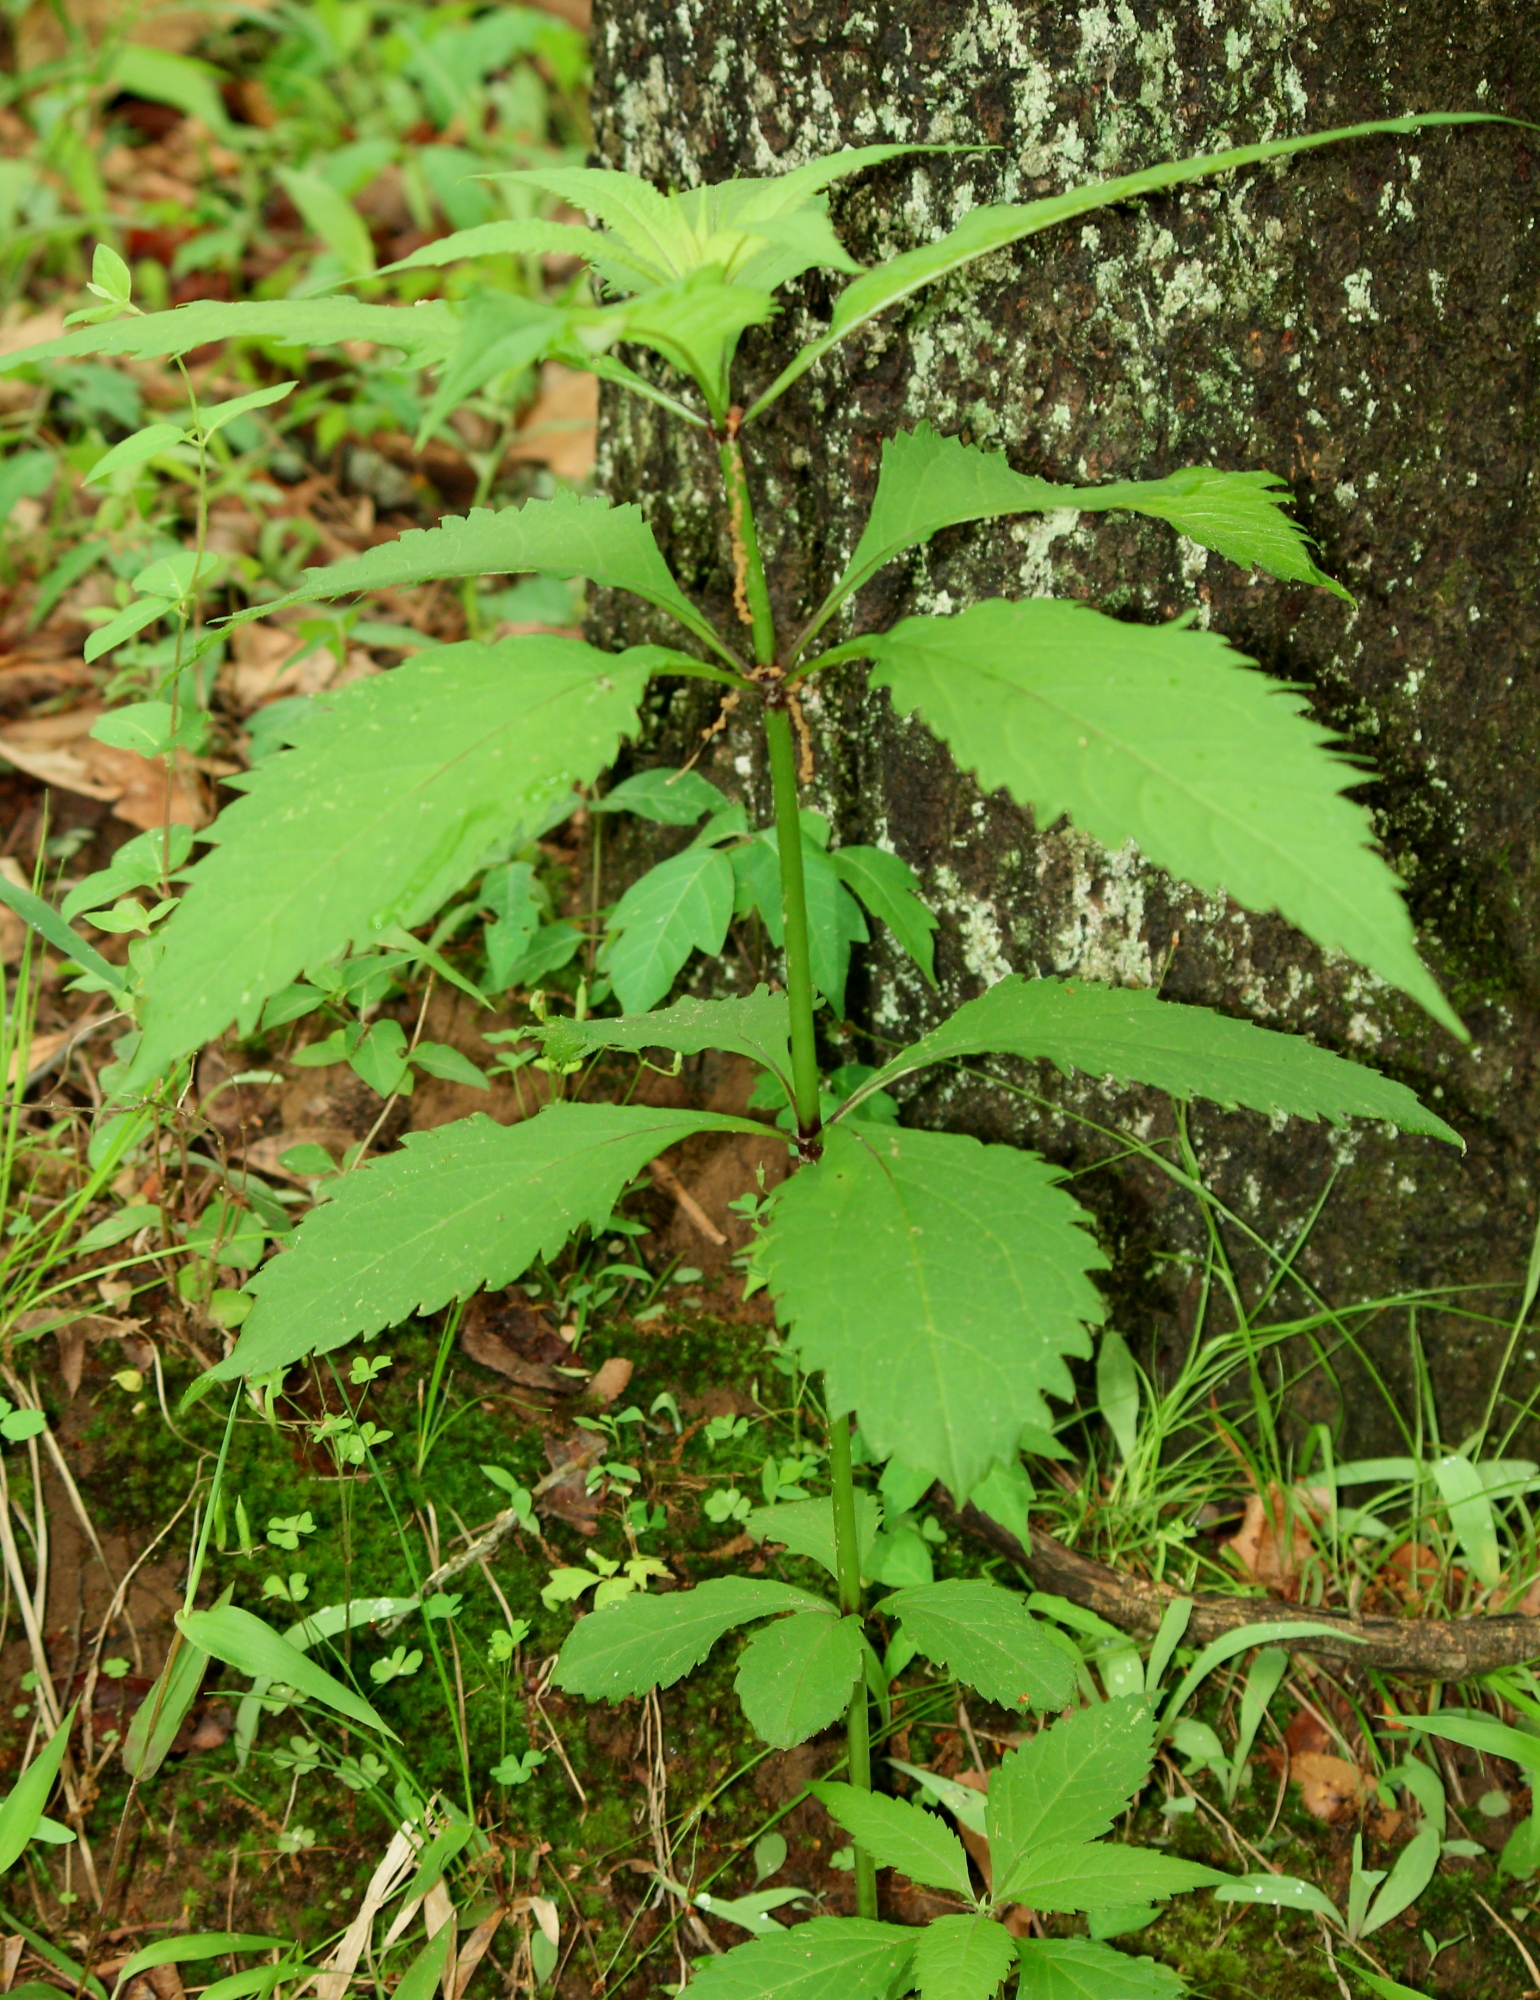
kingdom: Plantae
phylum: Tracheophyta
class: Magnoliopsida
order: Asterales
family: Asteraceae
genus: Eutrochium
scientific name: Eutrochium purpureum
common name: Gravelroot
